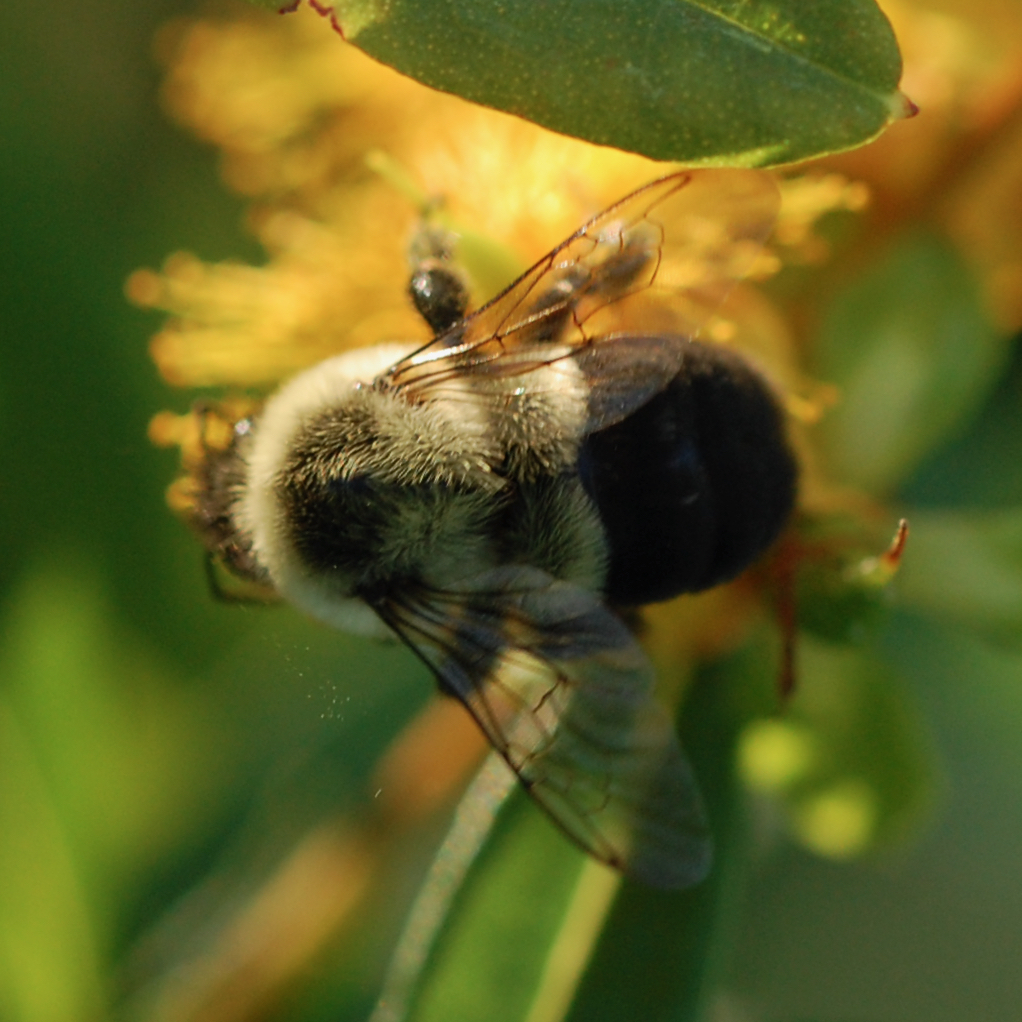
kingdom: Animalia
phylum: Arthropoda
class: Insecta
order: Hymenoptera
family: Apidae
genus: Bombus
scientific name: Bombus impatiens
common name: Common eastern bumble bee
